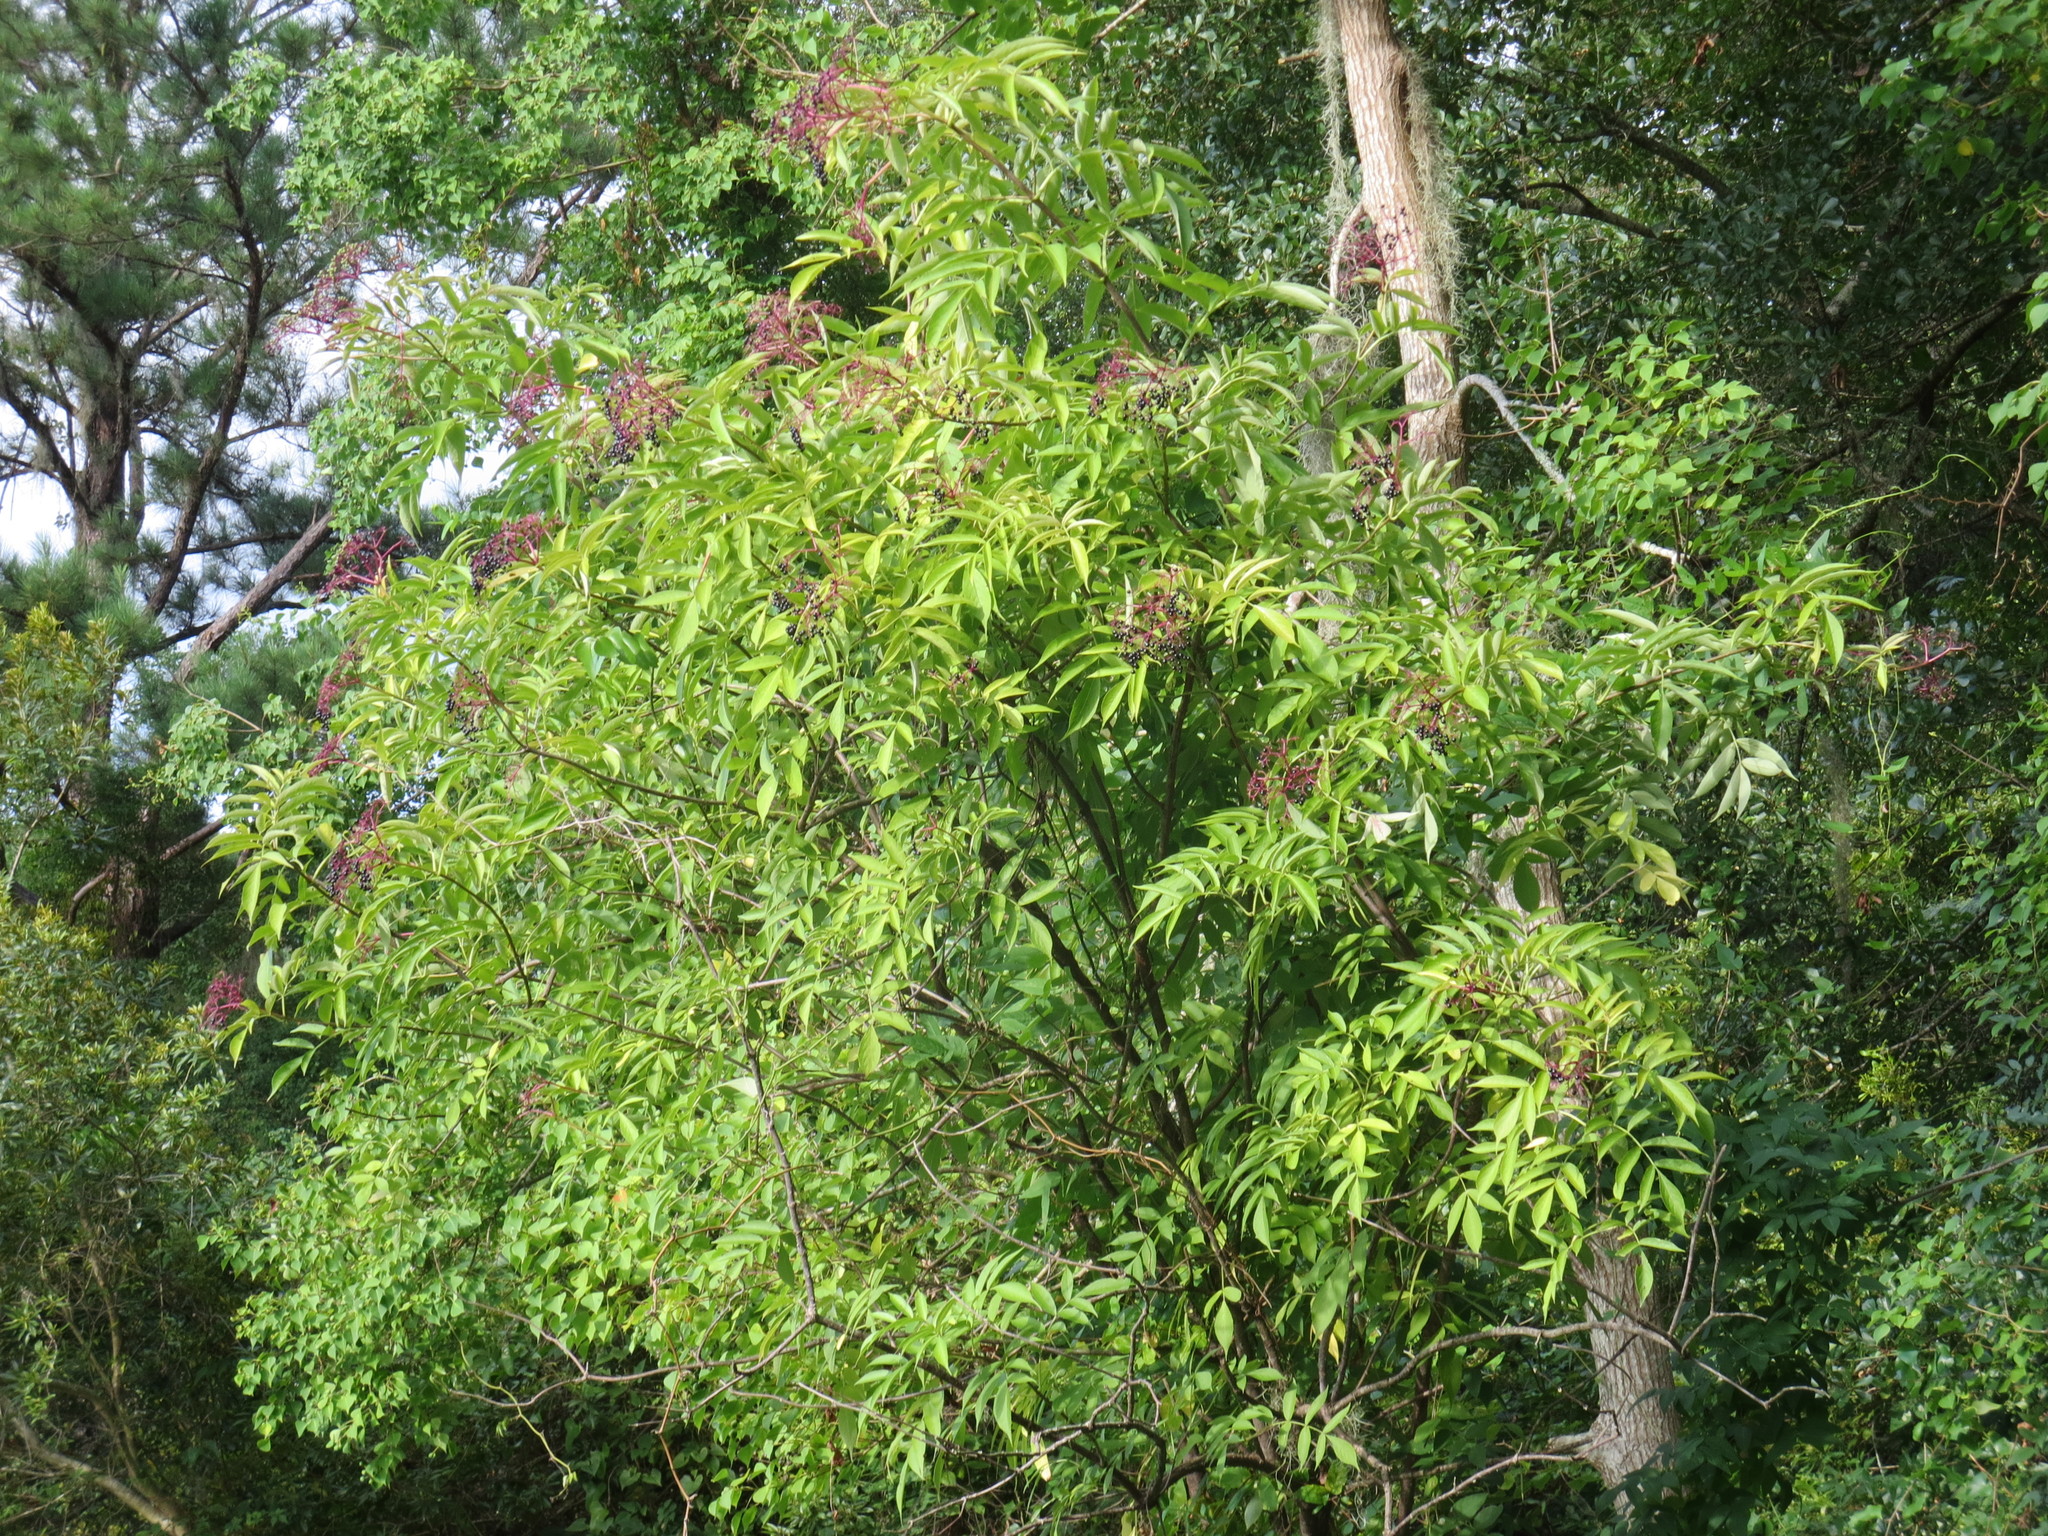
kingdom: Plantae
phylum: Tracheophyta
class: Magnoliopsida
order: Dipsacales
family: Viburnaceae
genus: Sambucus
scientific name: Sambucus canadensis
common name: American elder
